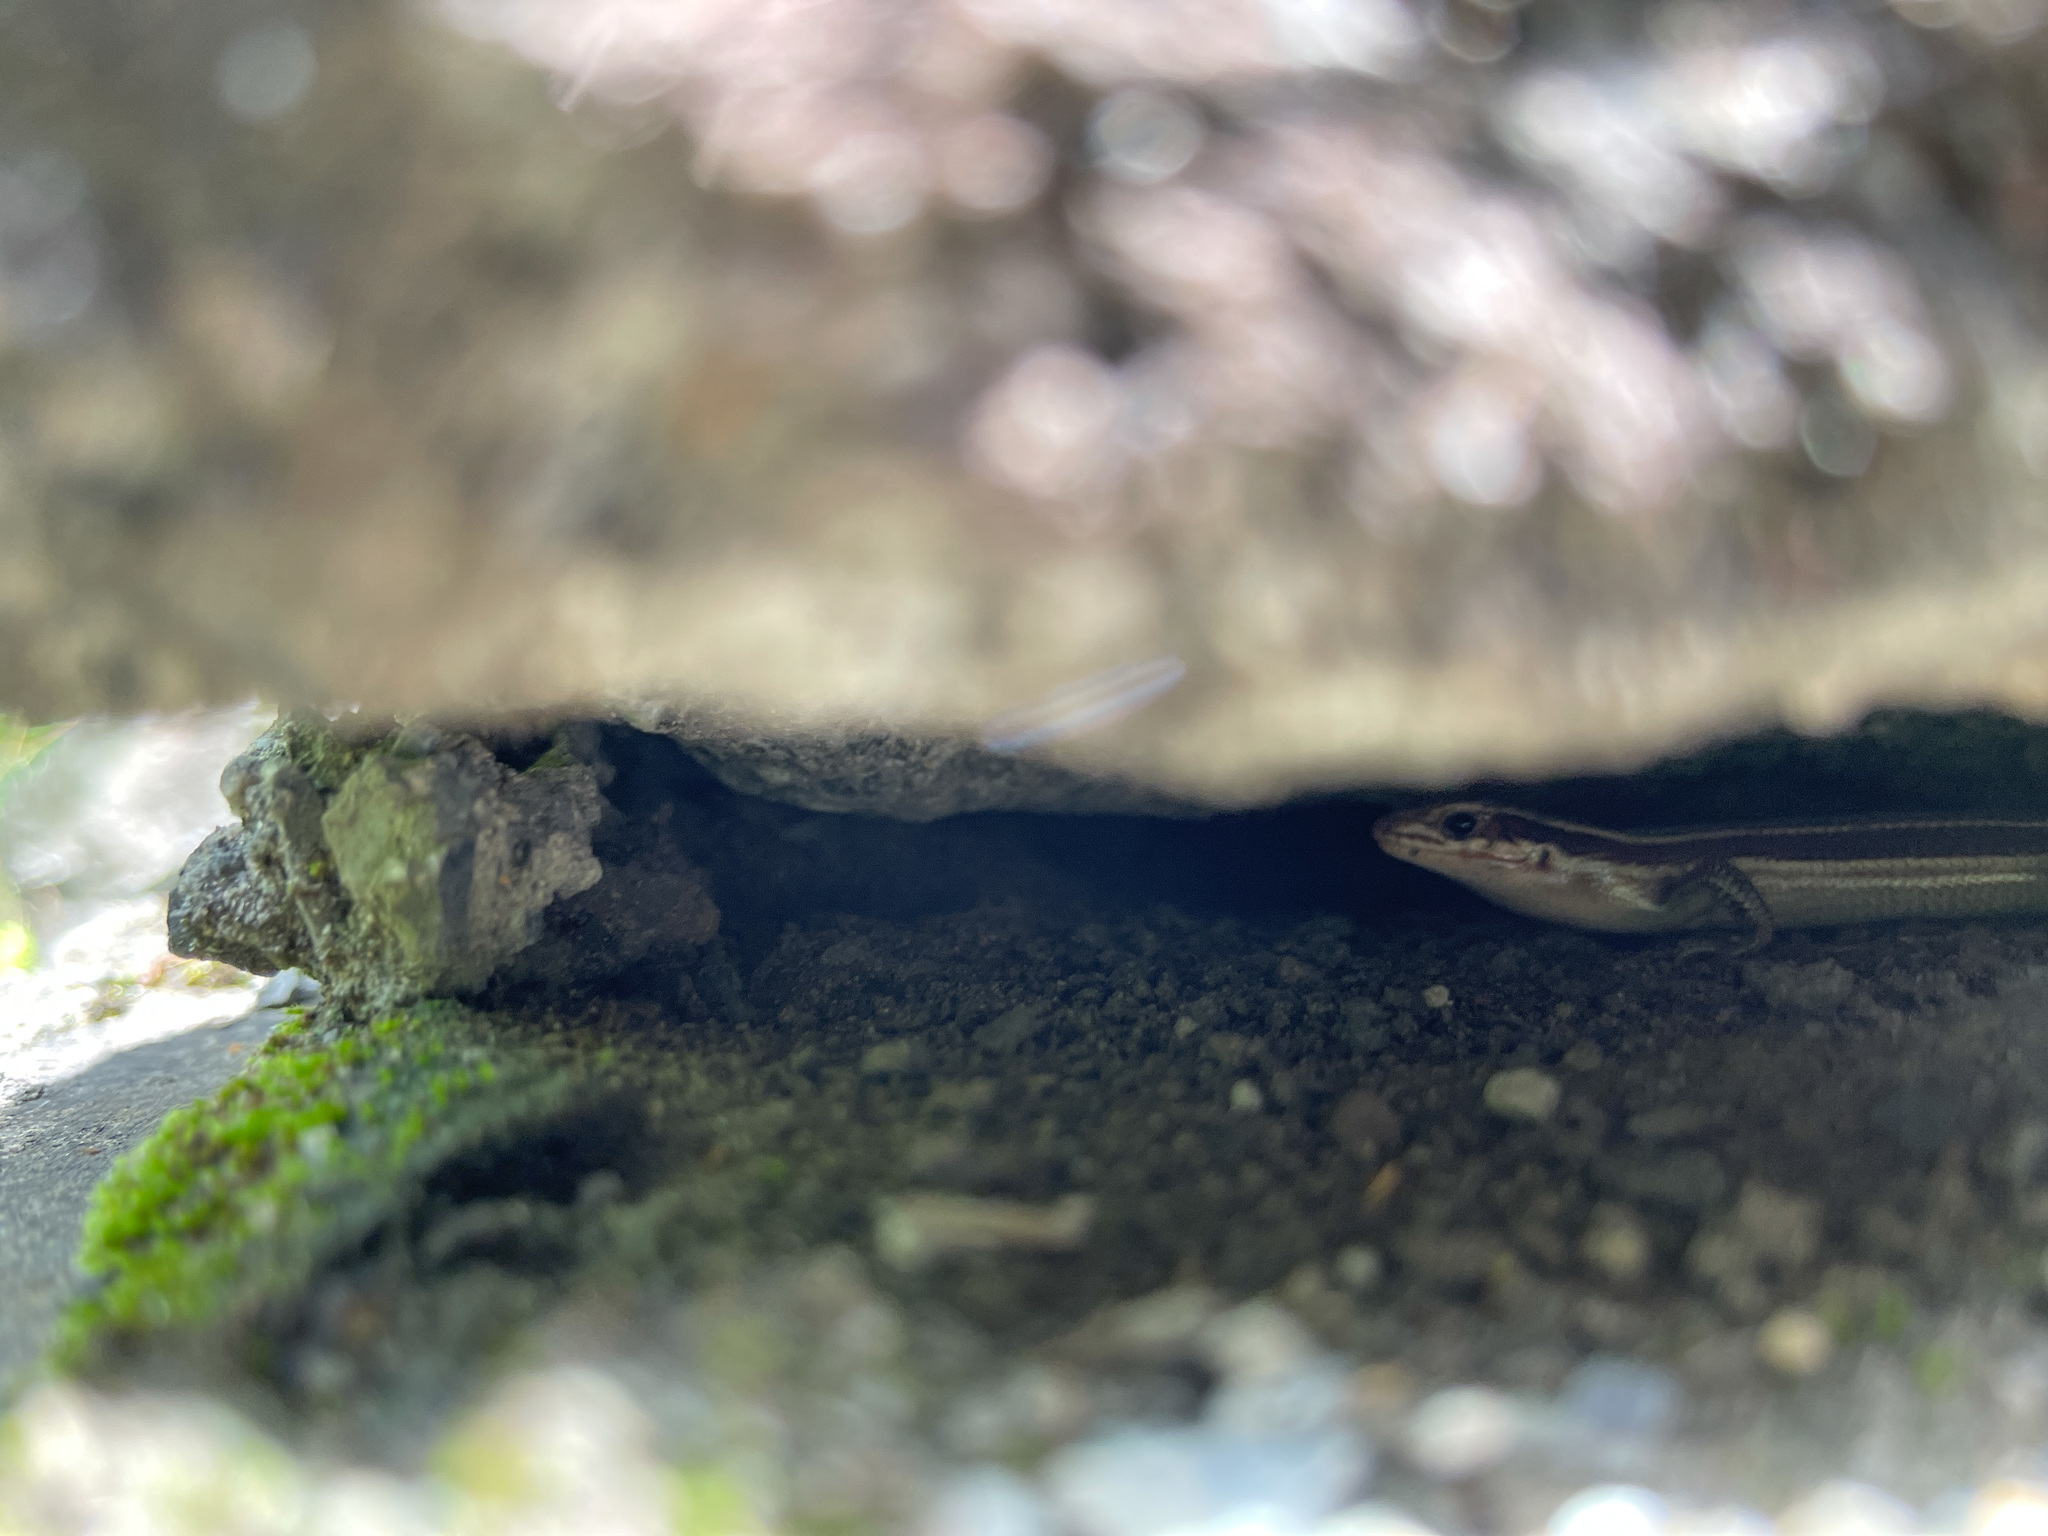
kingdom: Animalia
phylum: Chordata
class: Squamata
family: Scincidae
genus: Plestiodon
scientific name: Plestiodon elegans
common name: Shanghai elegant skink
